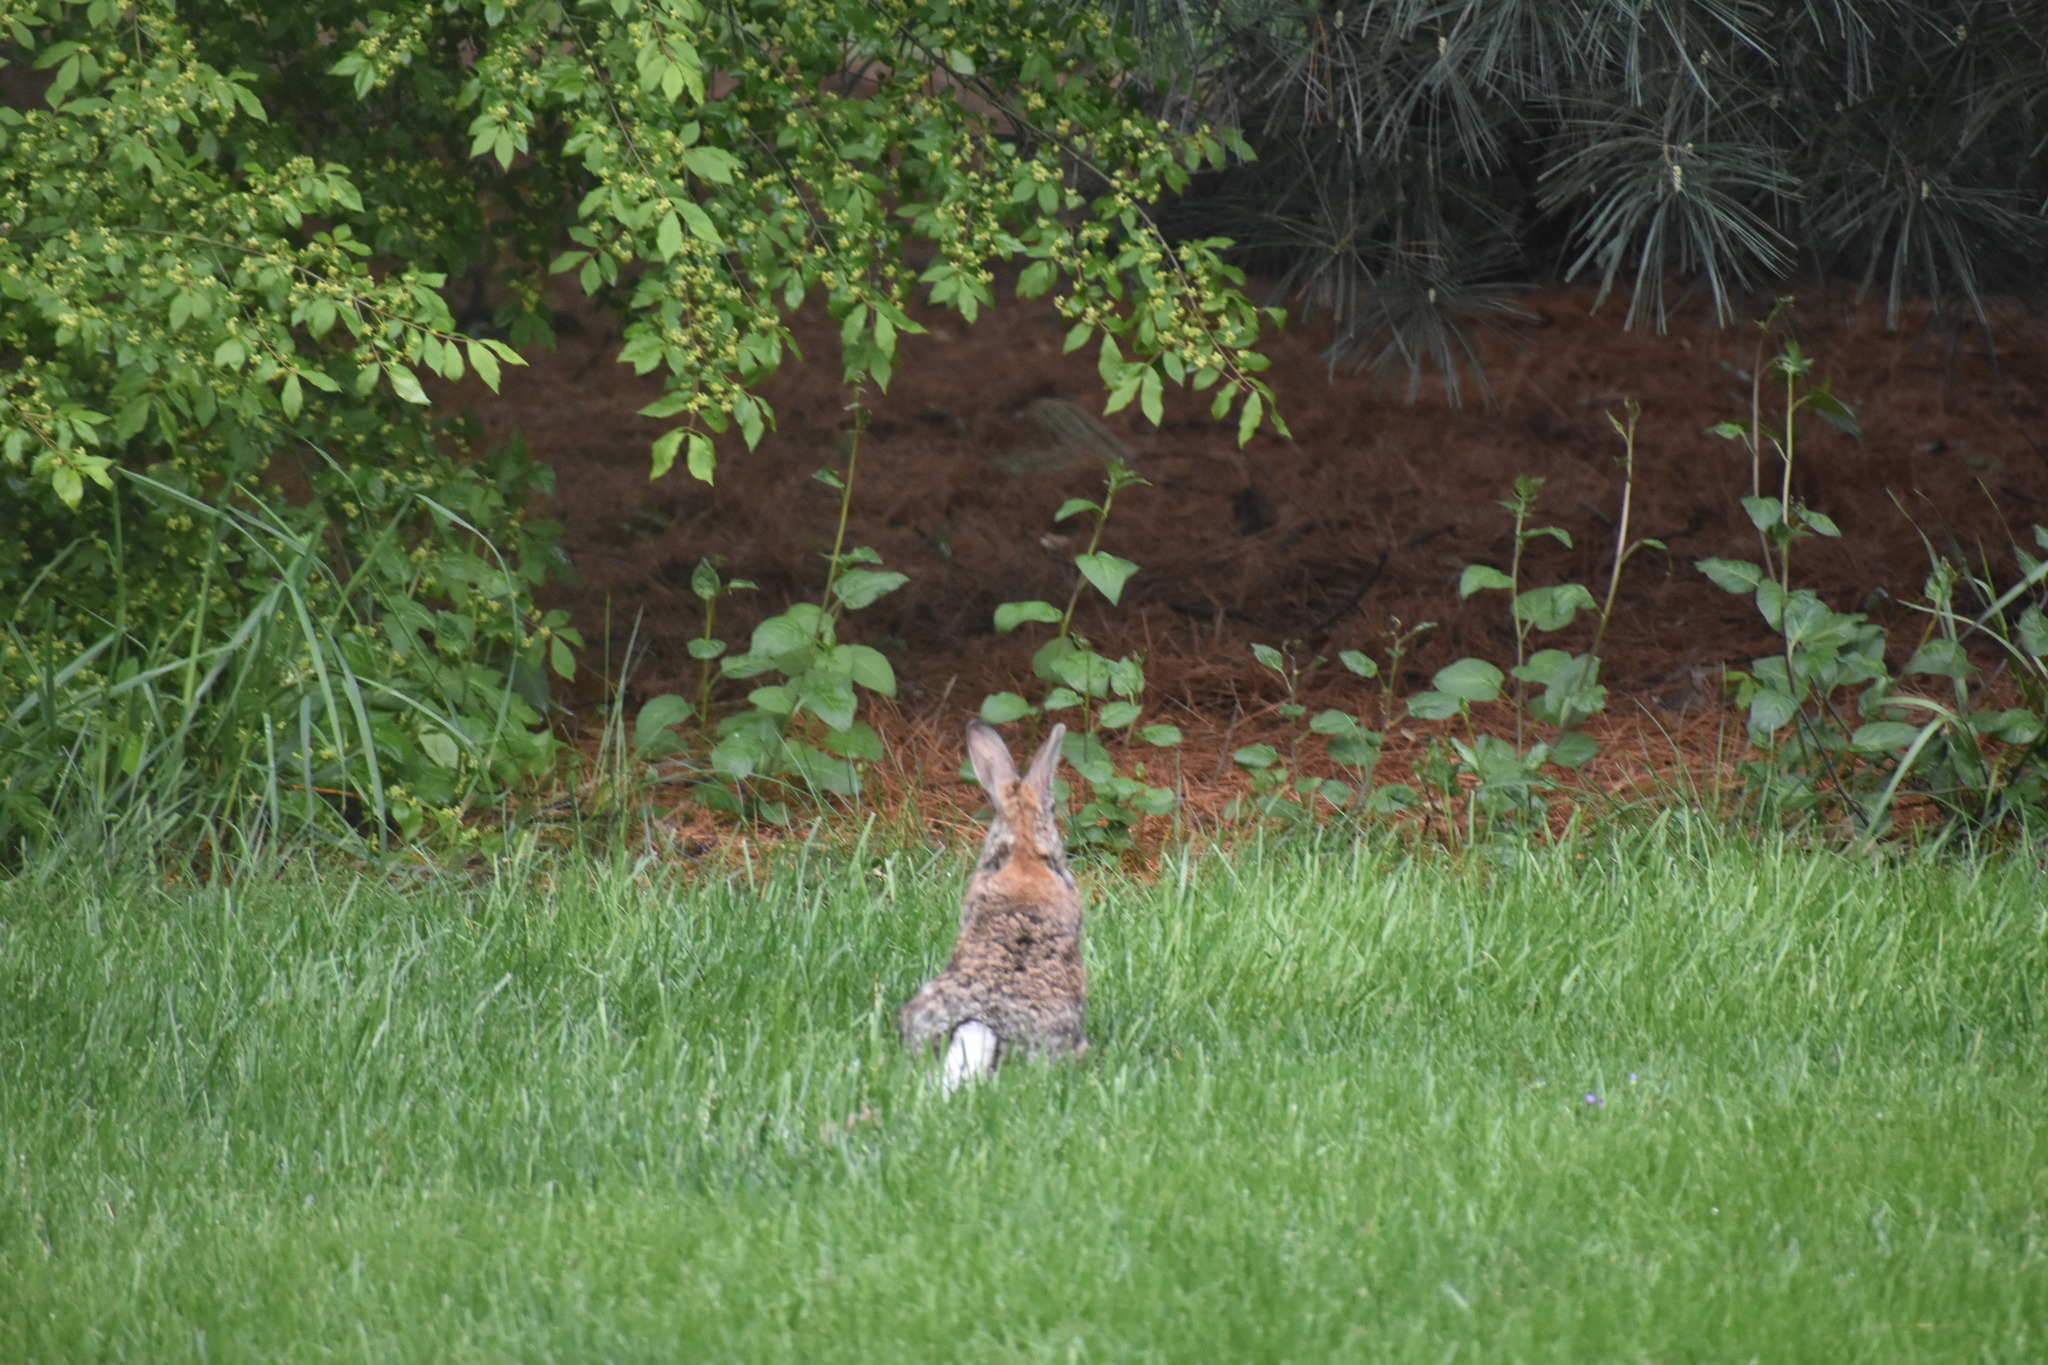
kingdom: Animalia
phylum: Chordata
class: Mammalia
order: Lagomorpha
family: Leporidae
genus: Sylvilagus
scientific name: Sylvilagus floridanus
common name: Eastern cottontail
